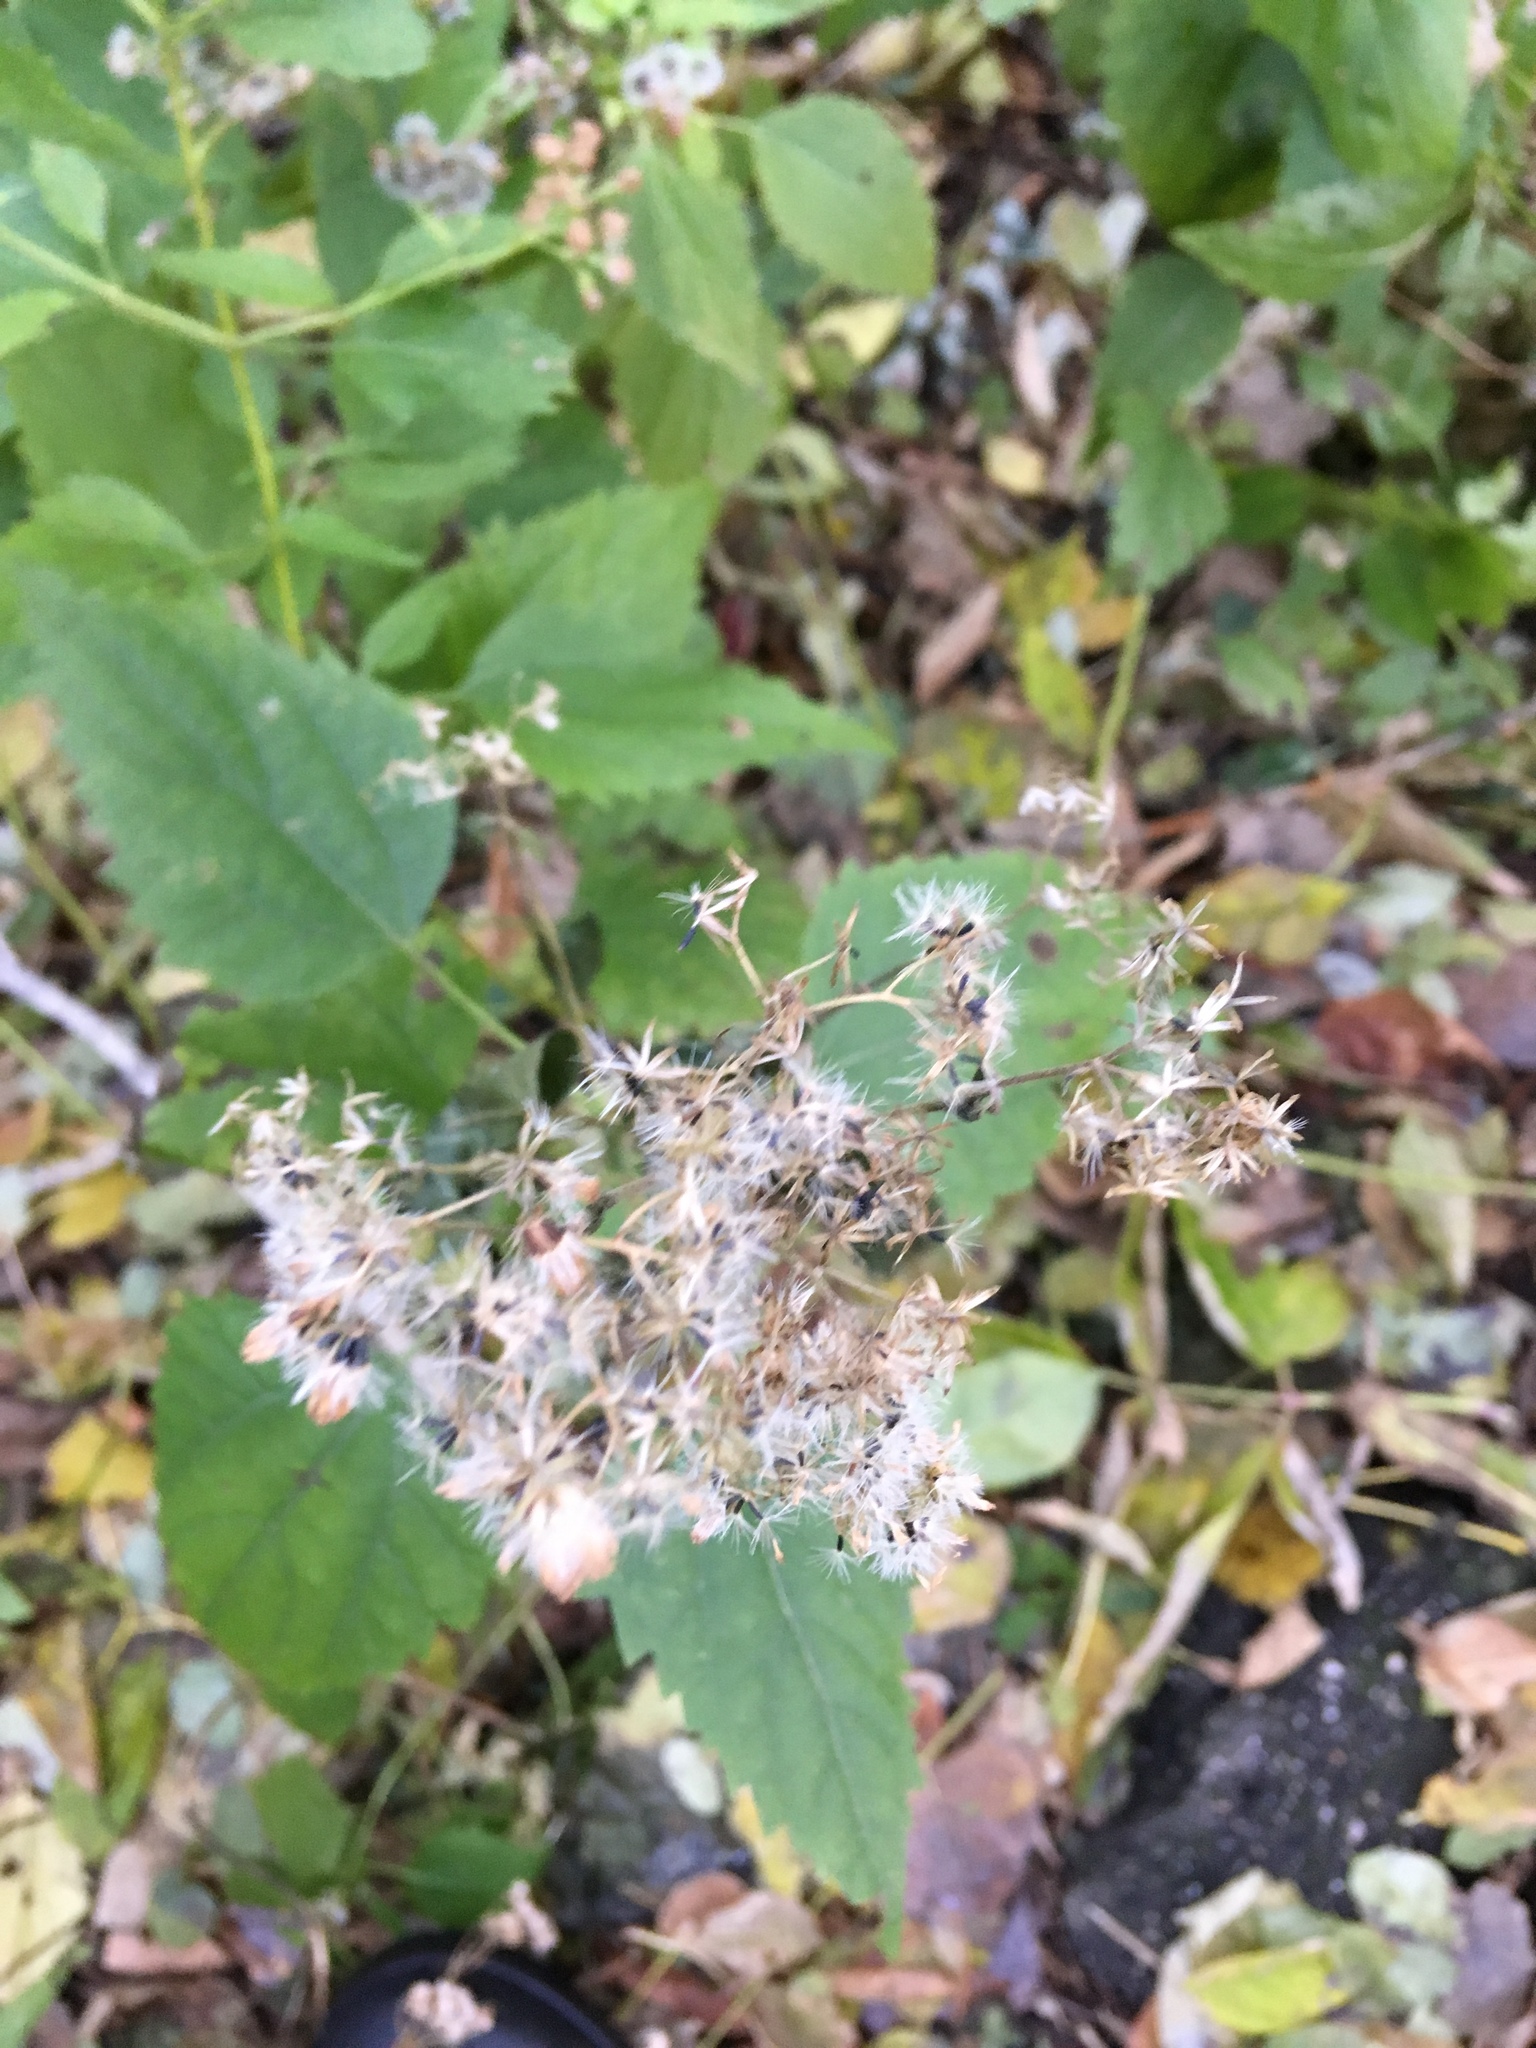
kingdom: Plantae
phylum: Tracheophyta
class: Magnoliopsida
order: Asterales
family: Asteraceae
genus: Ageratina
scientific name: Ageratina altissima
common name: White snakeroot
